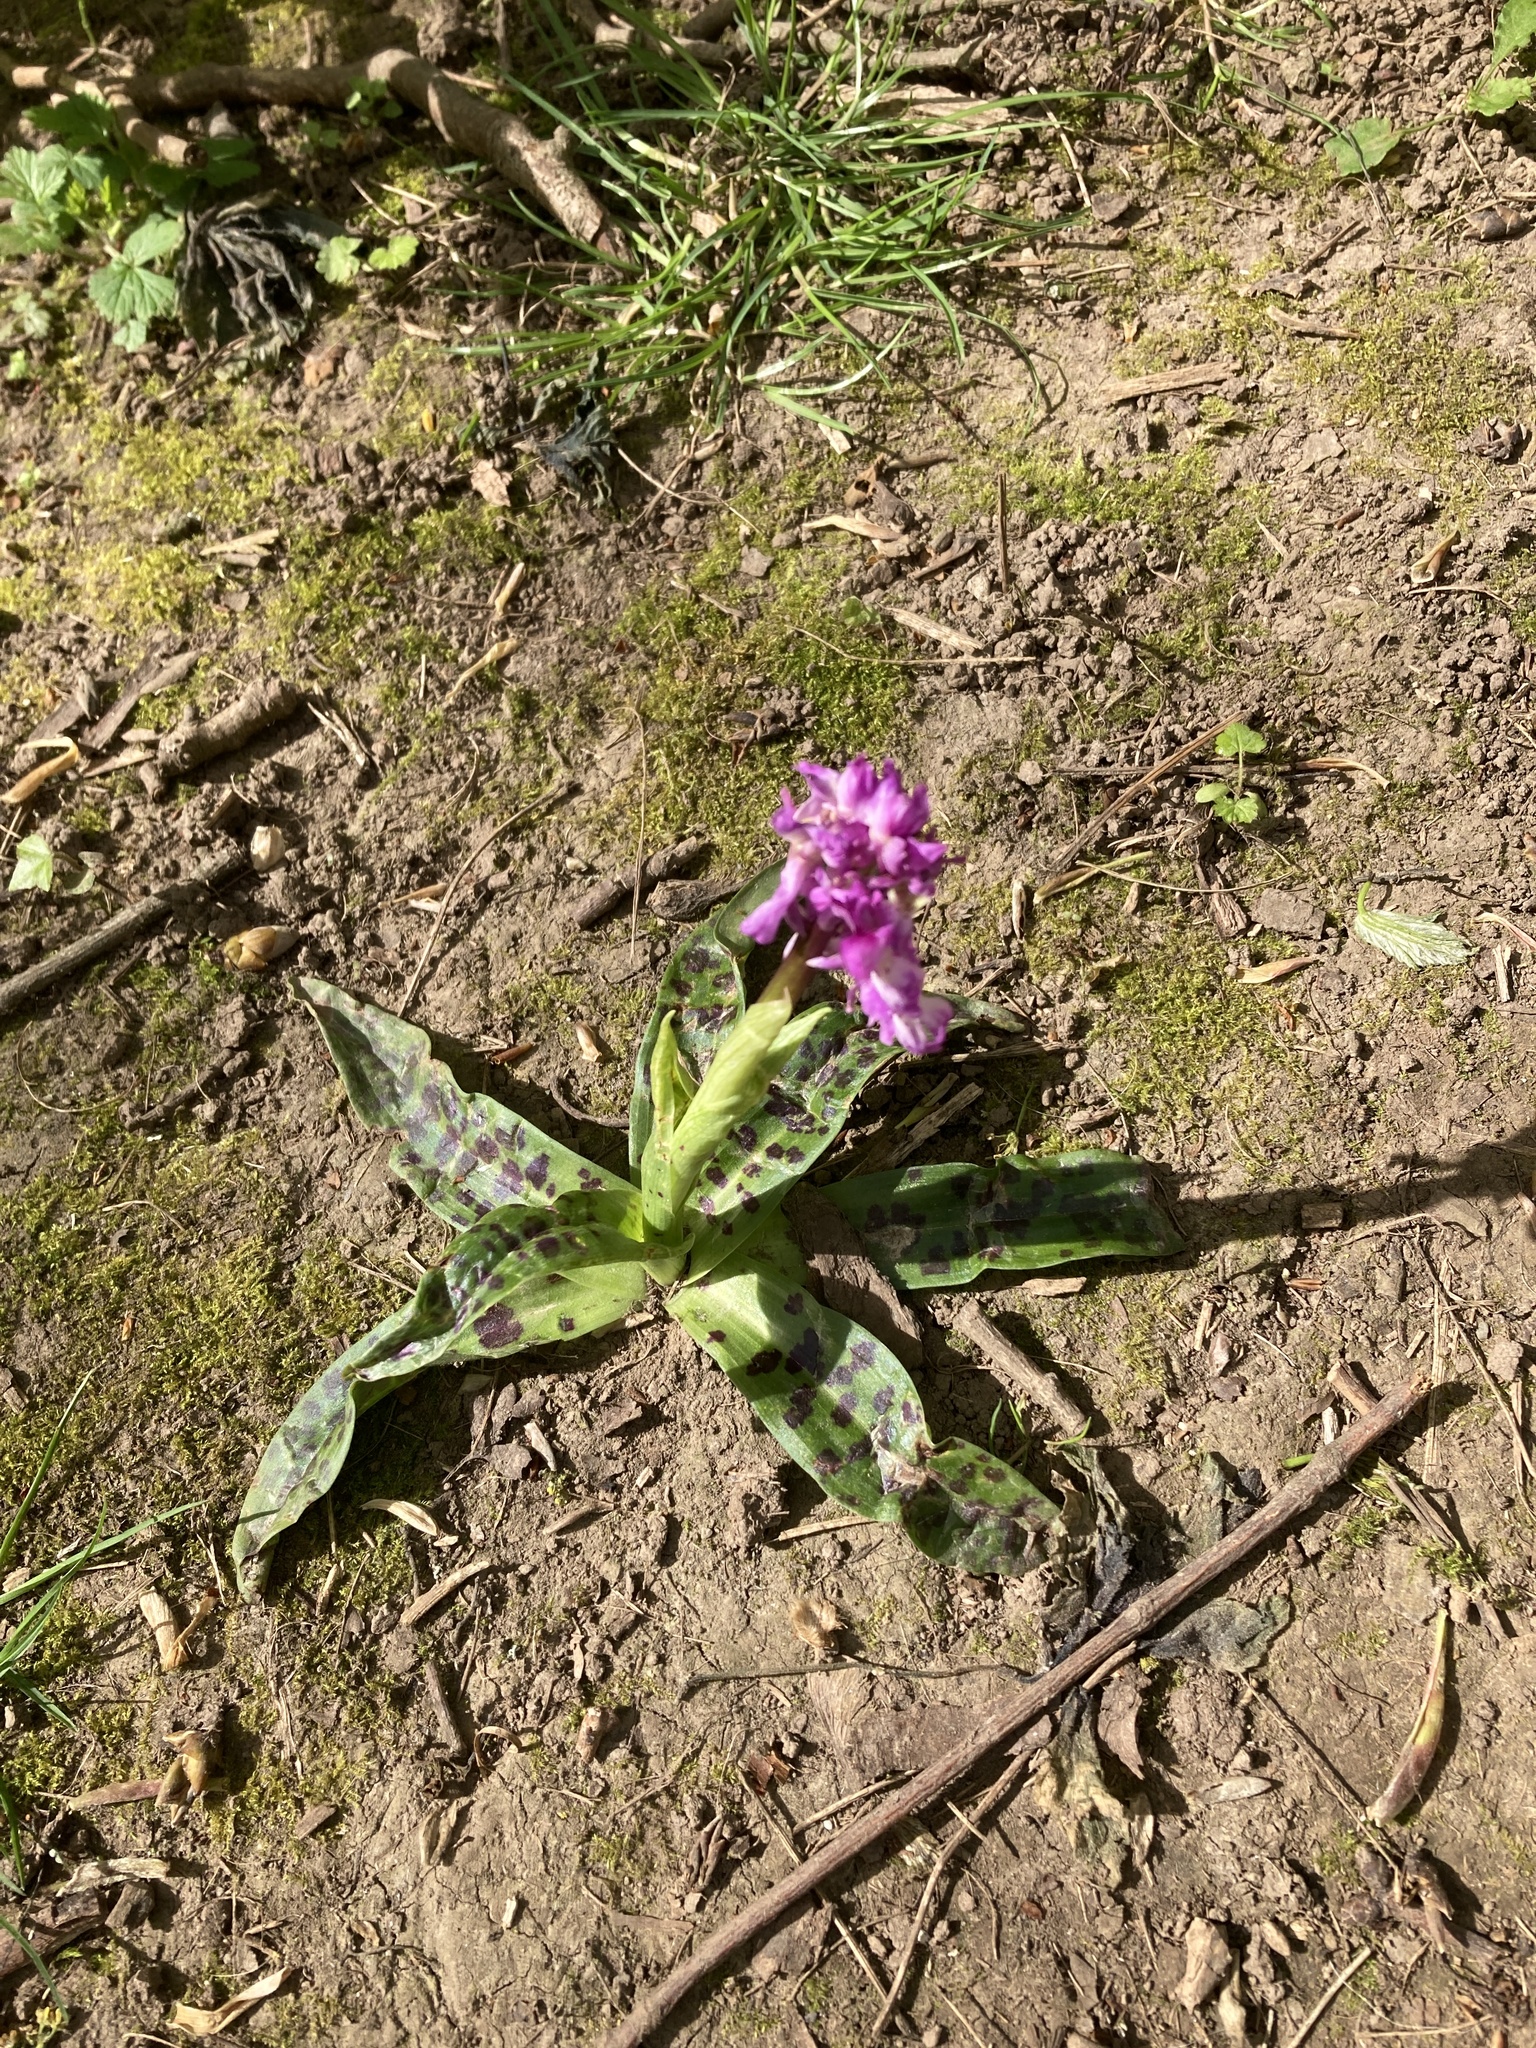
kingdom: Plantae
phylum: Tracheophyta
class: Liliopsida
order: Asparagales
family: Orchidaceae
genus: Orchis
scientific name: Orchis mascula
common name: Early-purple orchid
